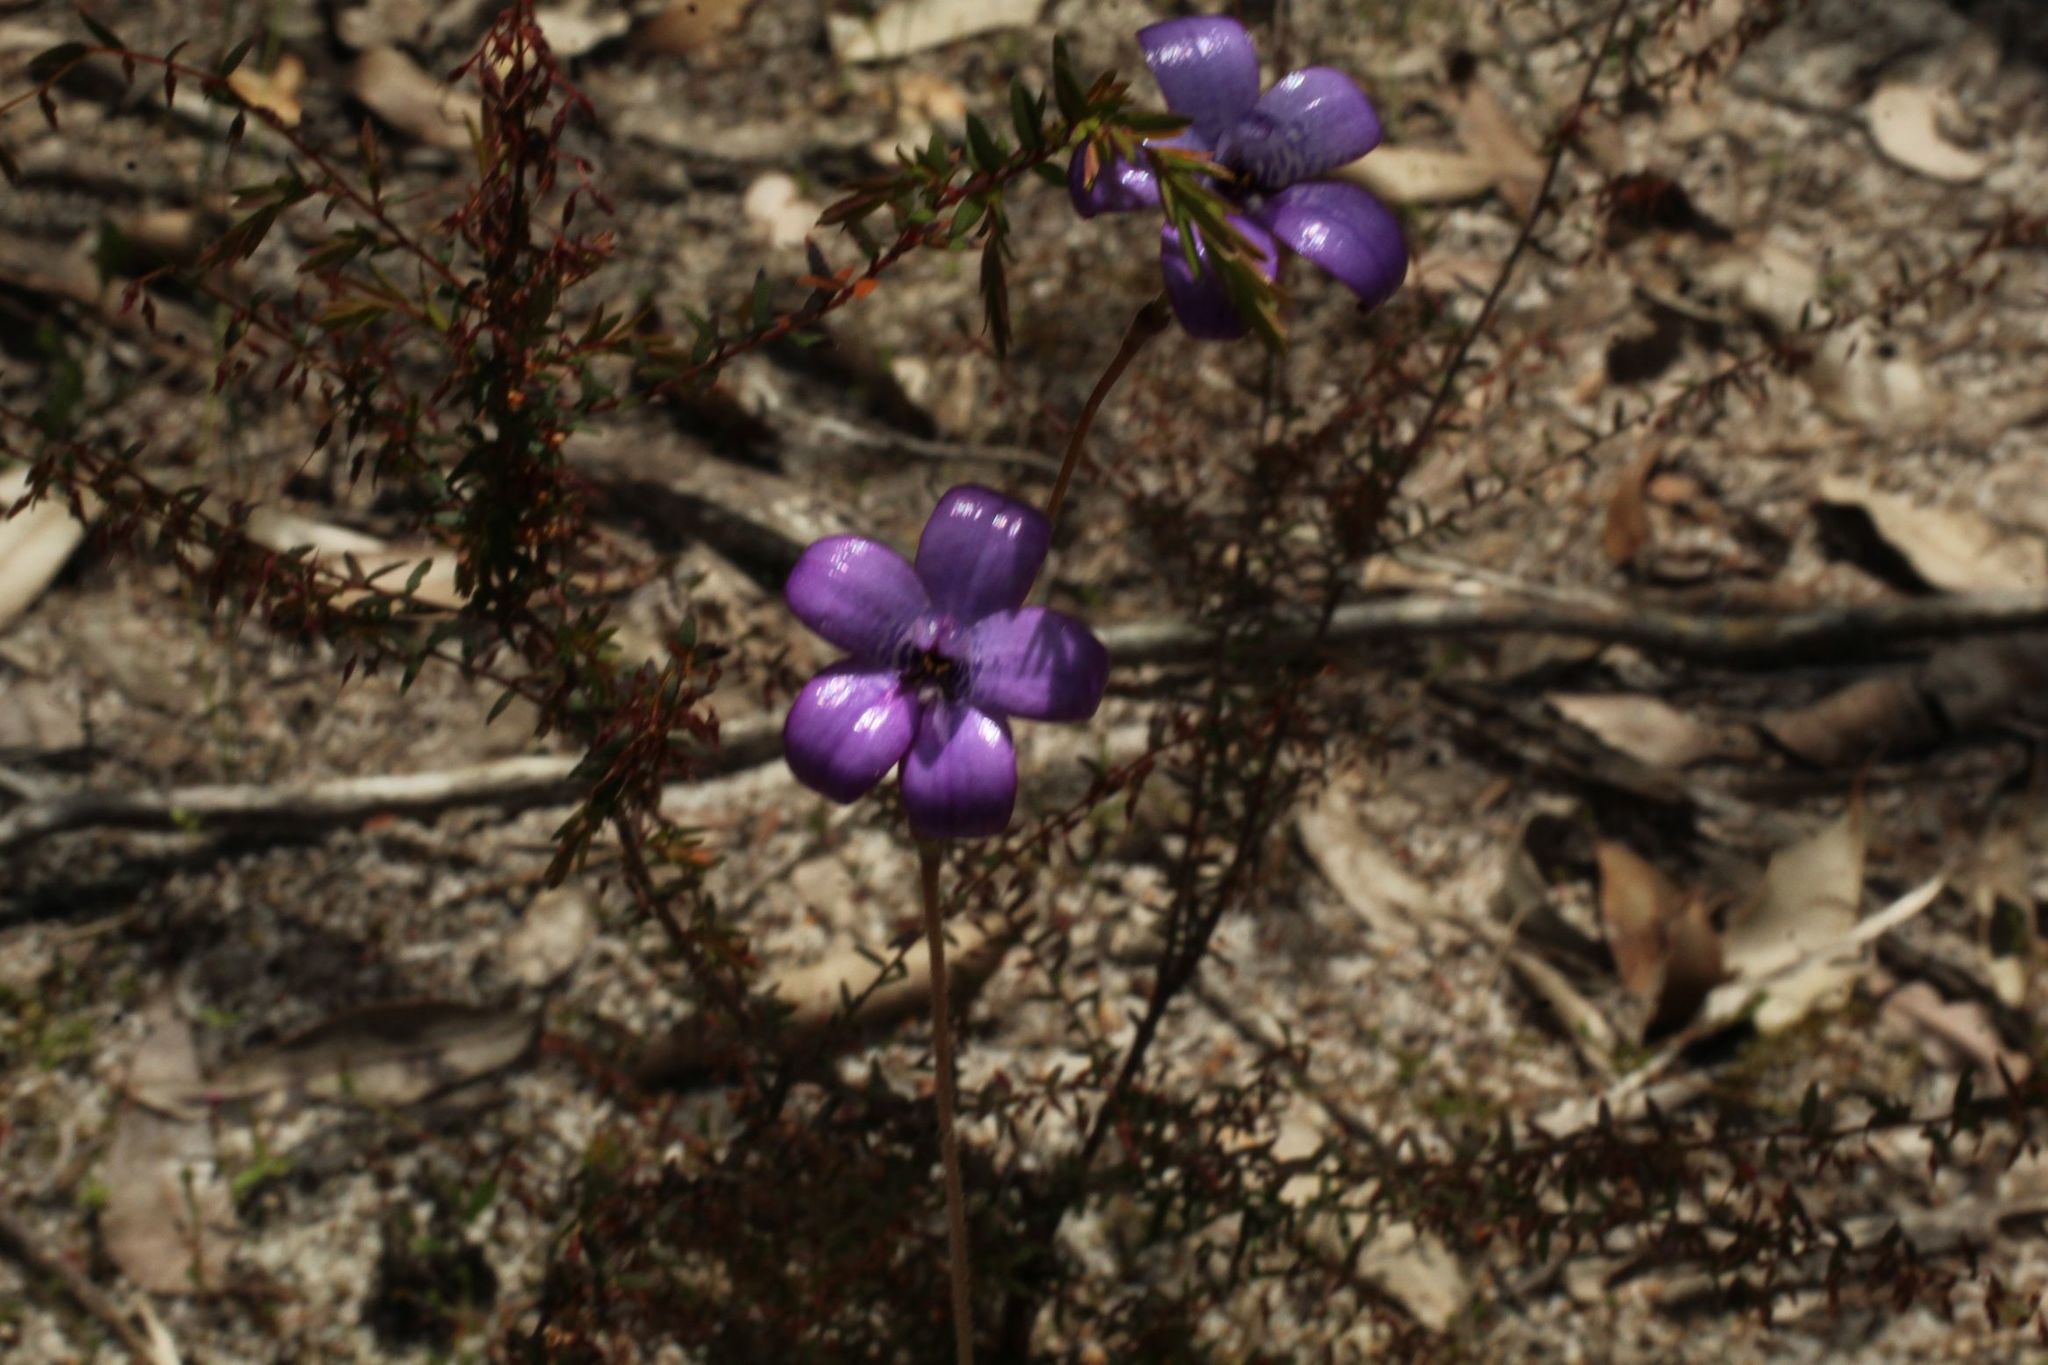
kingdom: Plantae
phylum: Tracheophyta
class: Liliopsida
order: Asparagales
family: Orchidaceae
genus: Caladenia
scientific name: Caladenia brunonis
